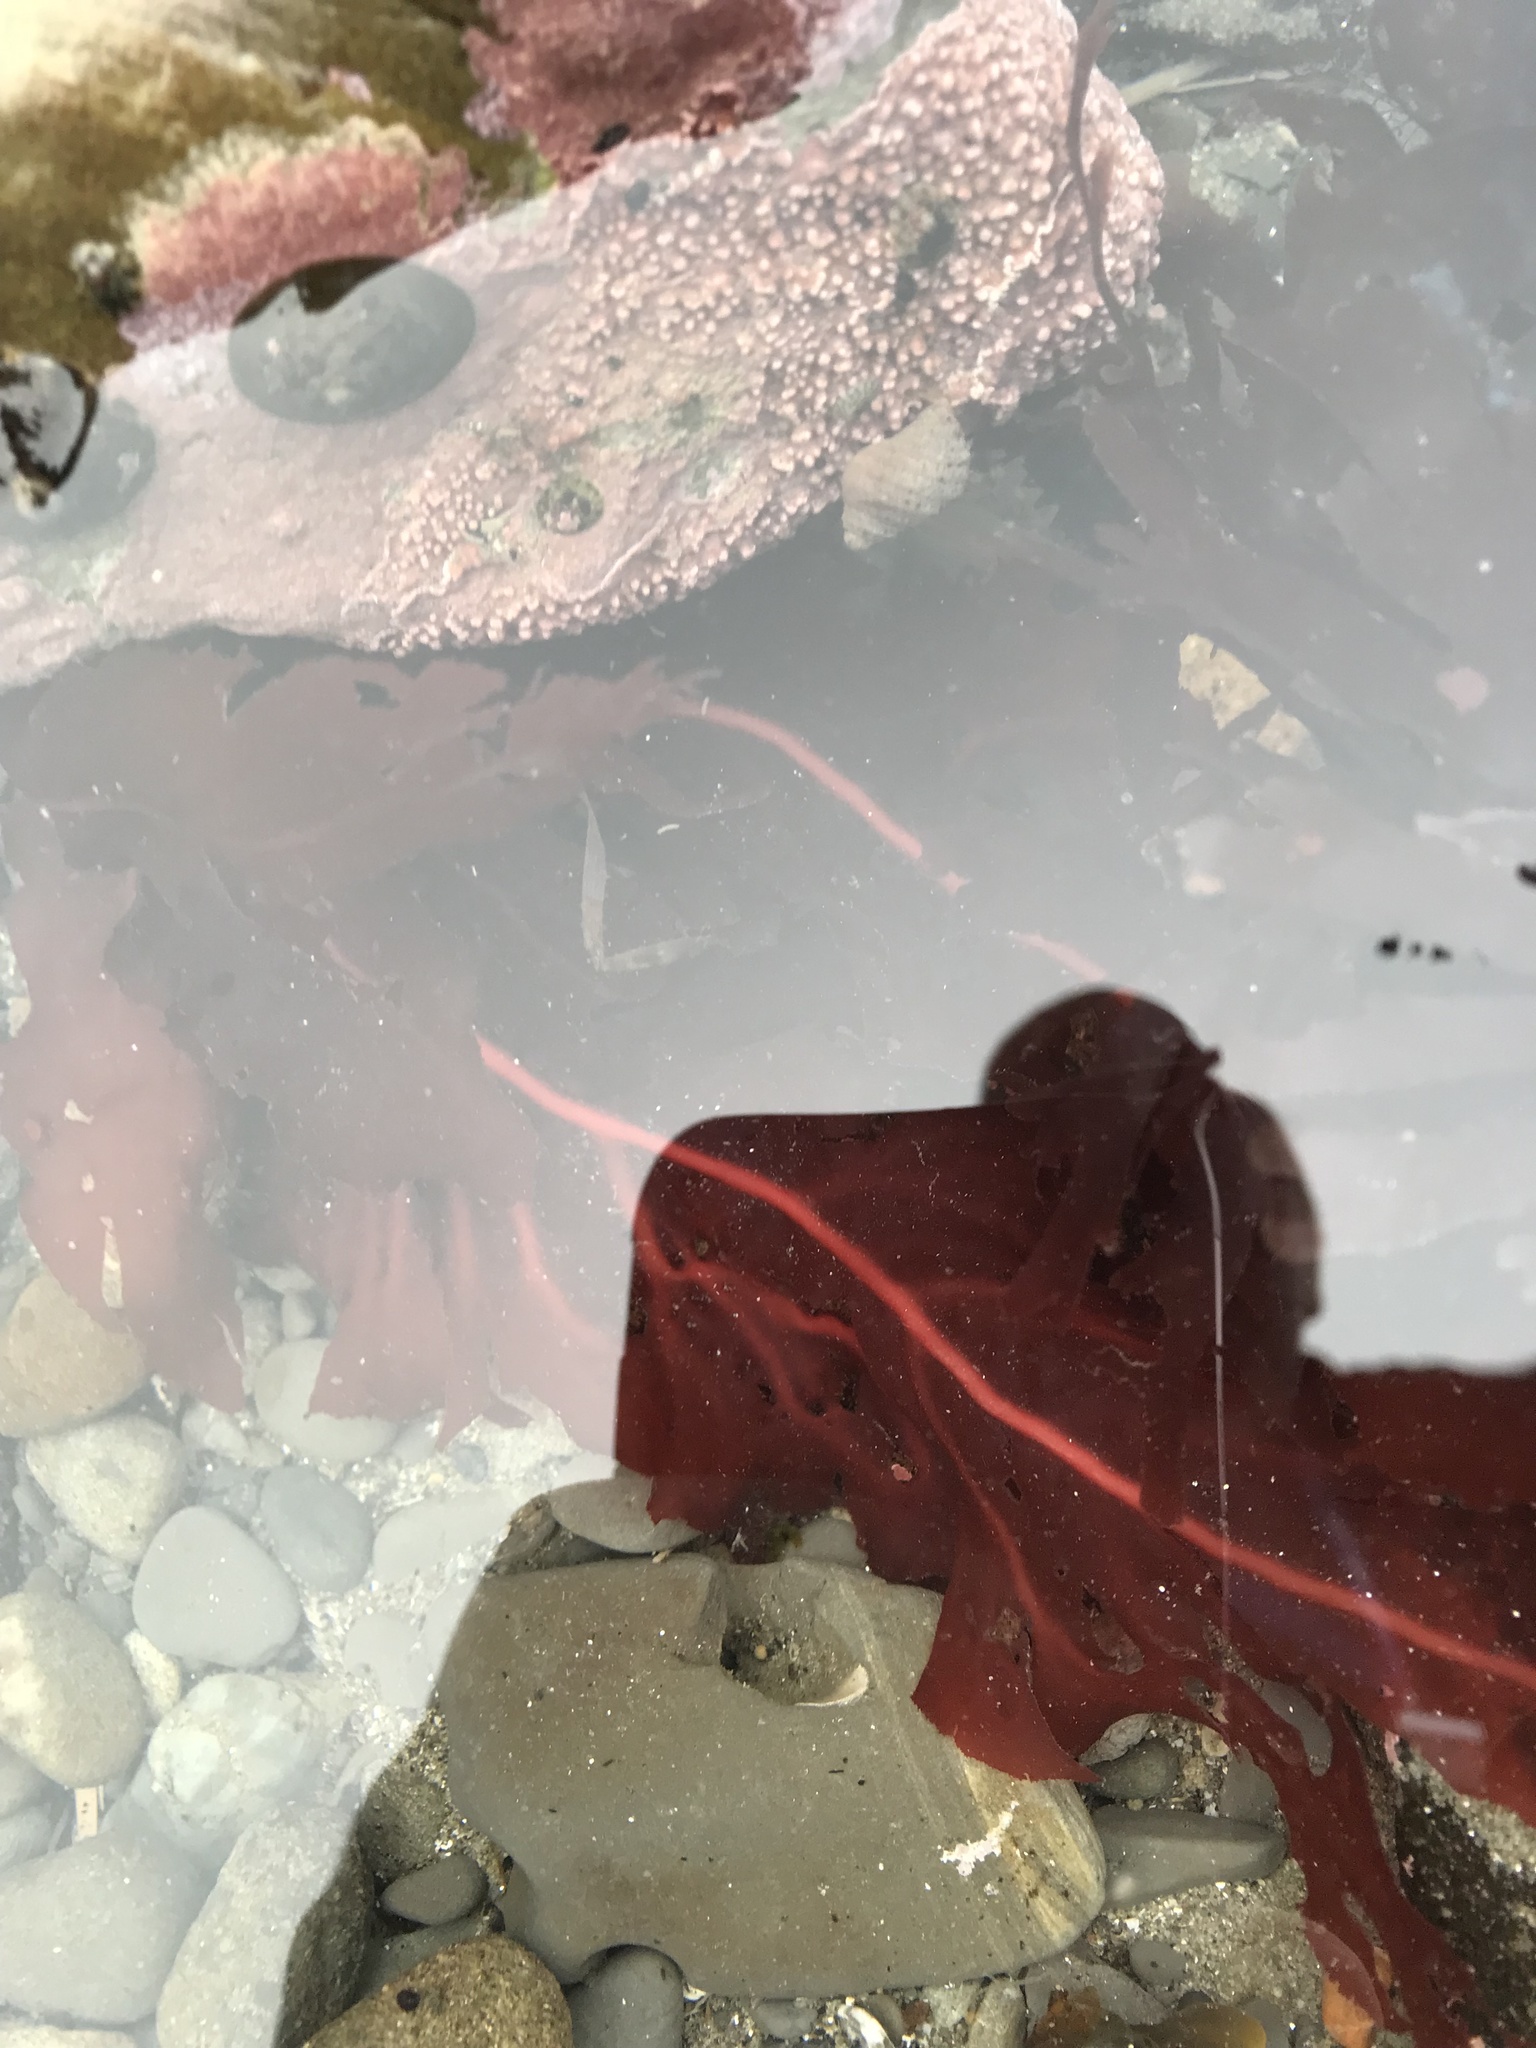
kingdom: Plantae
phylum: Rhodophyta
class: Florideophyceae
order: Gigartinales
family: Kallymeniaceae
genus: Erythrophyllum
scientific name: Erythrophyllum delesserioides
